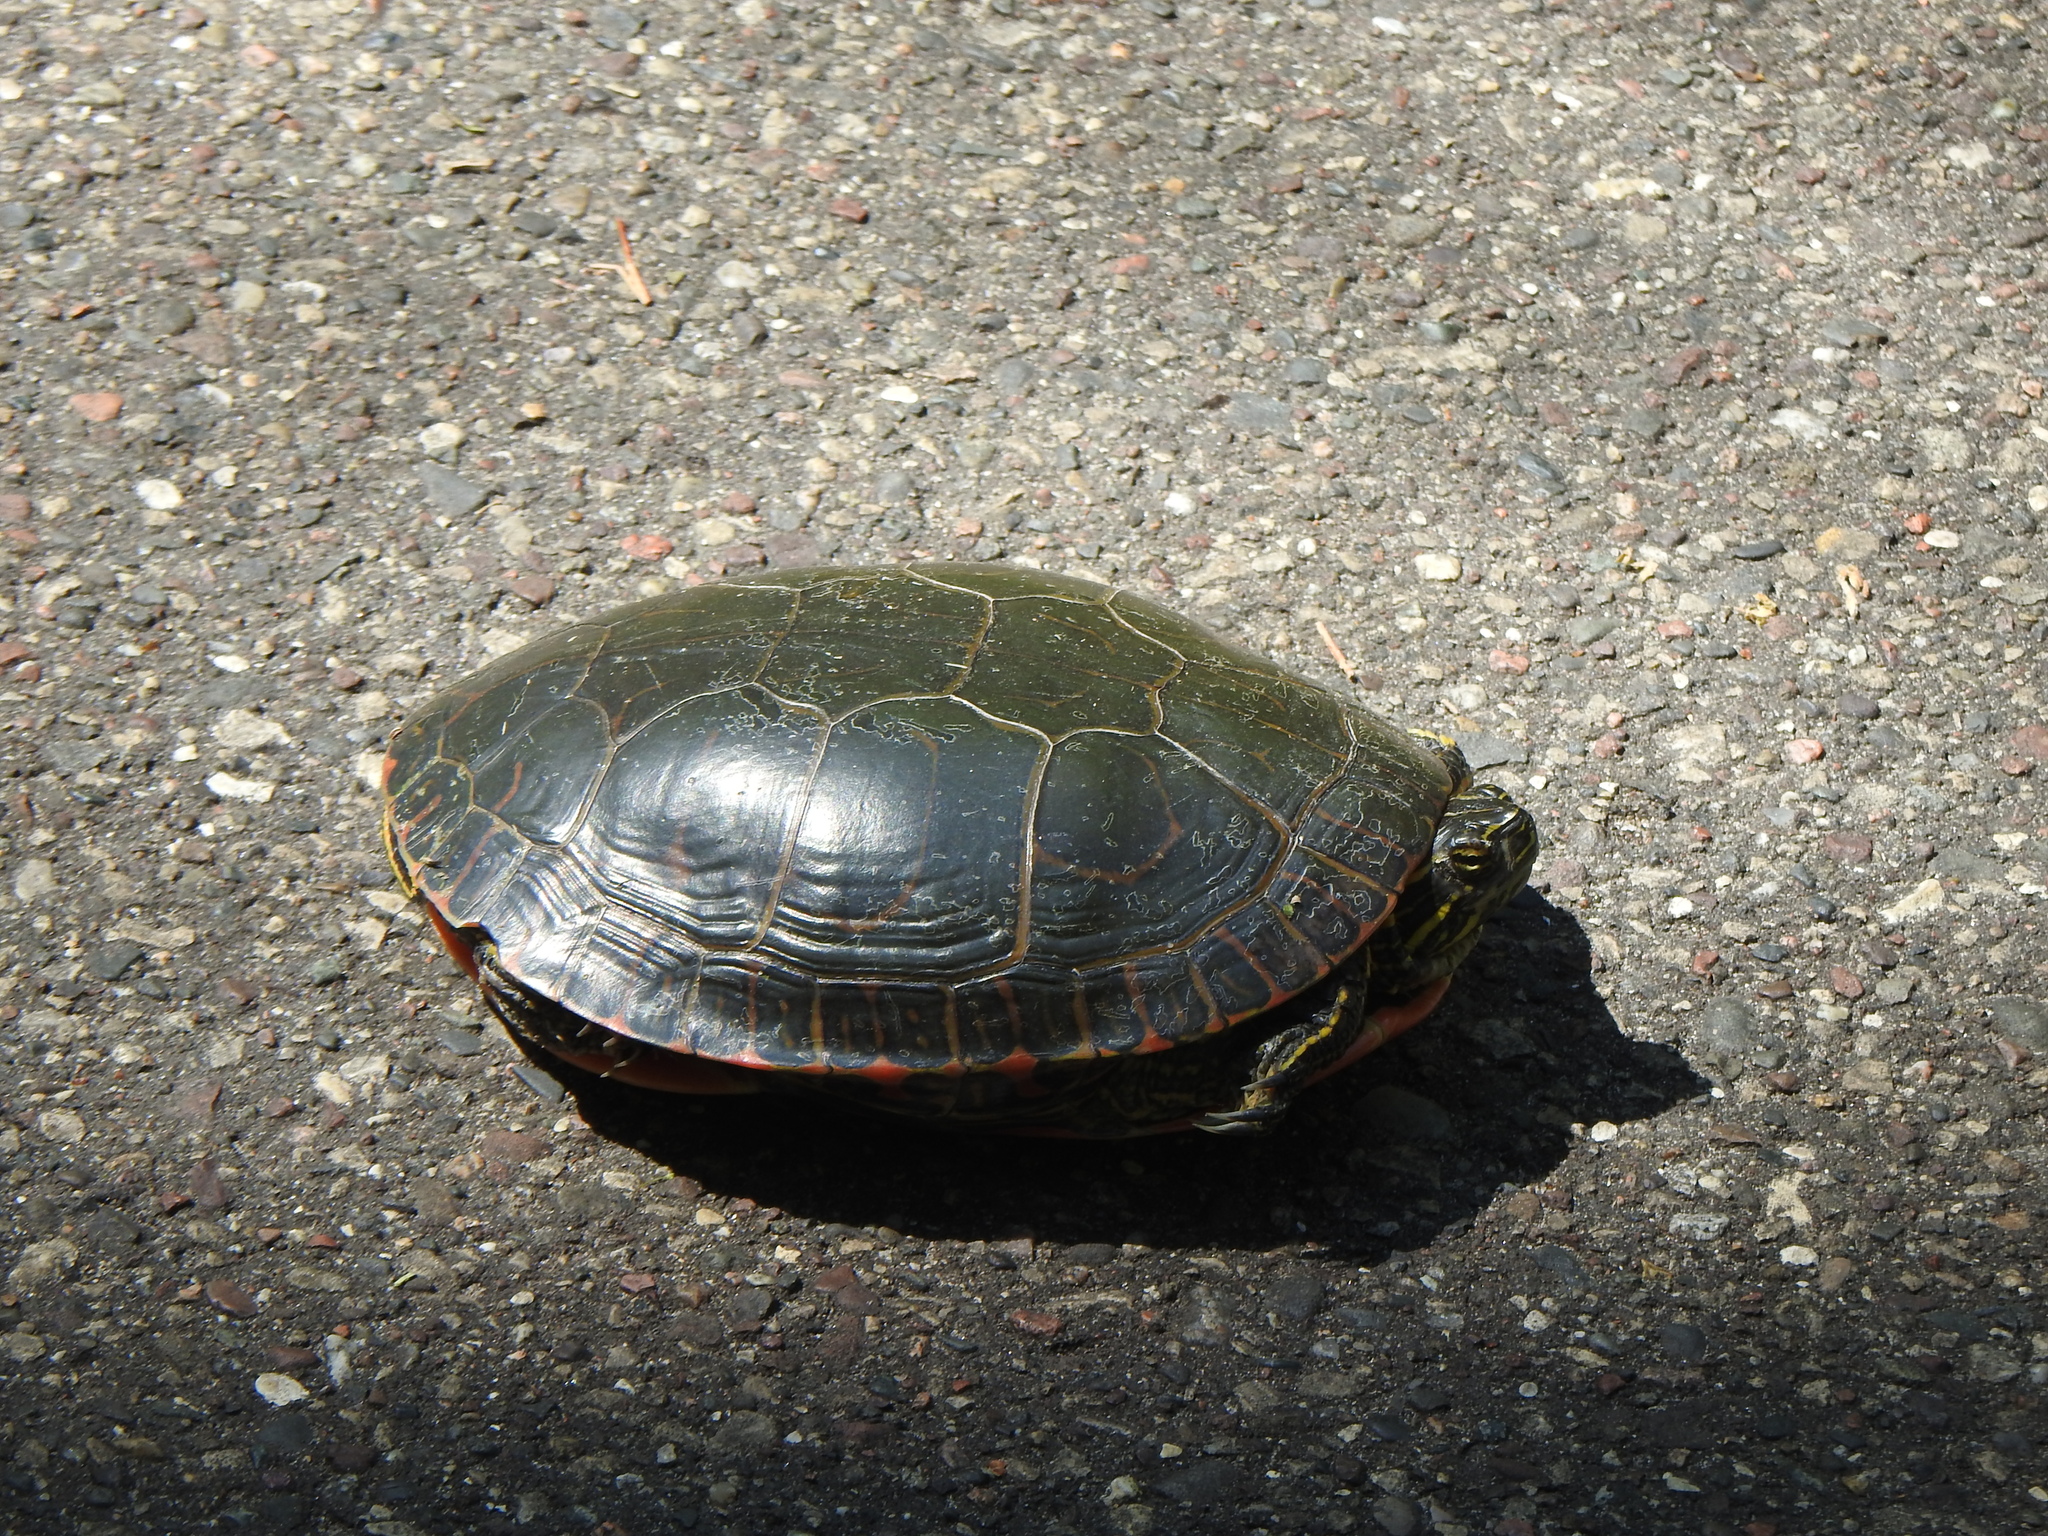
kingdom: Animalia
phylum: Chordata
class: Testudines
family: Emydidae
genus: Chrysemys
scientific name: Chrysemys picta
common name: Painted turtle
